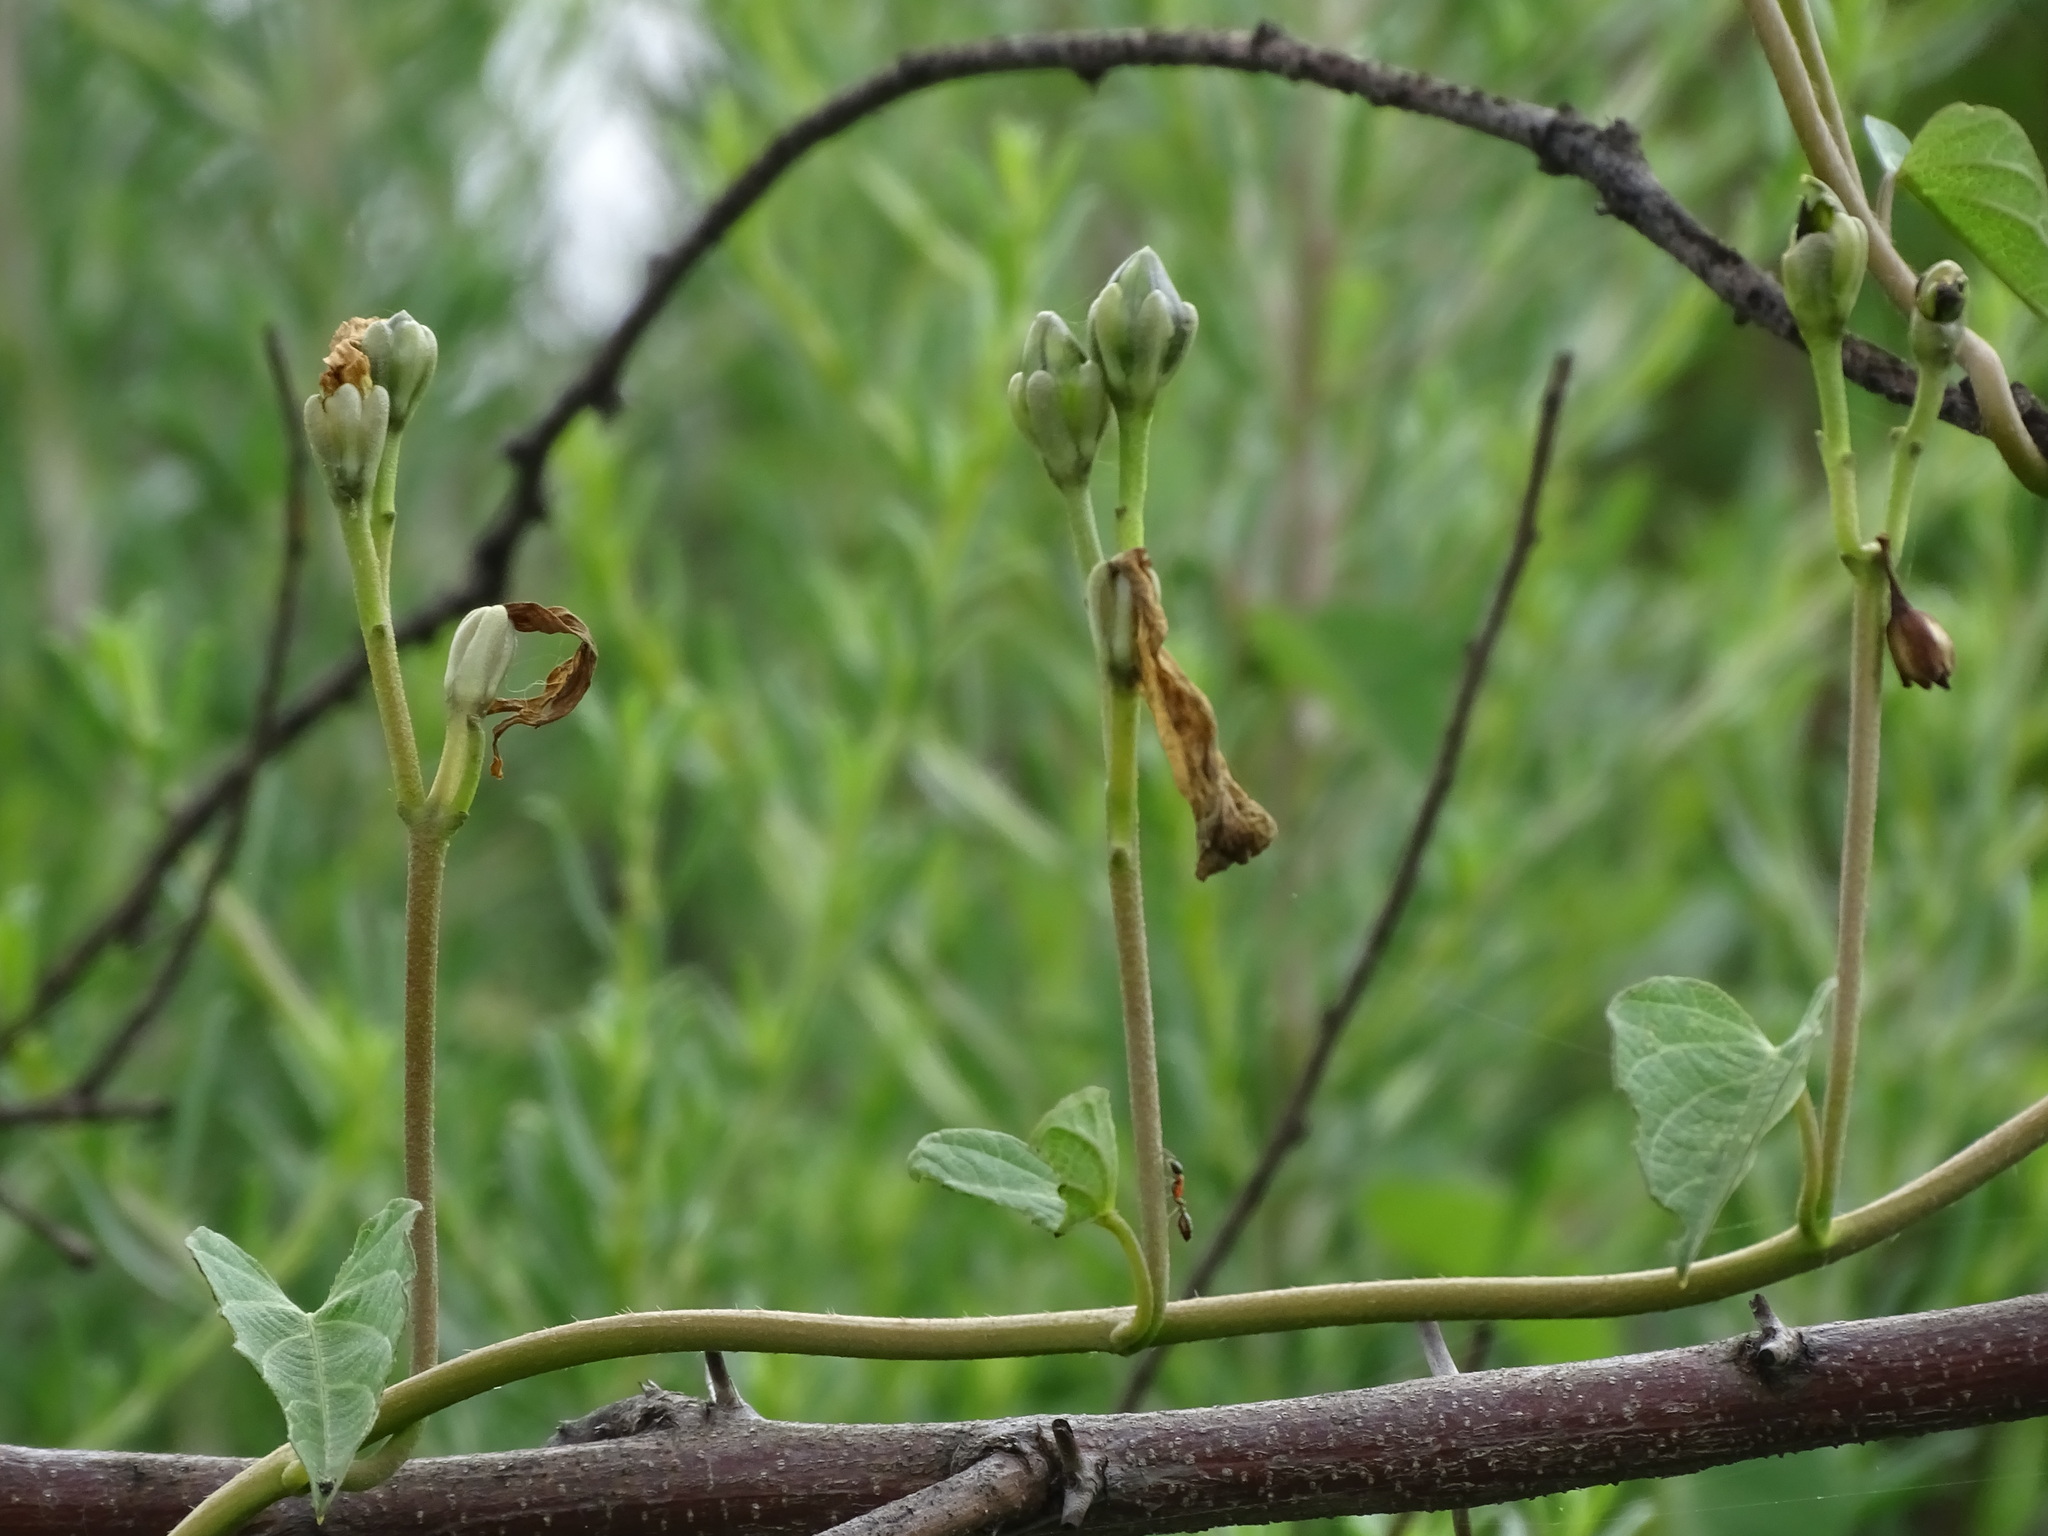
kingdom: Plantae
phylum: Tracheophyta
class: Magnoliopsida
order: Solanales
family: Convolvulaceae
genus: Ipomoea
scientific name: Ipomoea proxima
